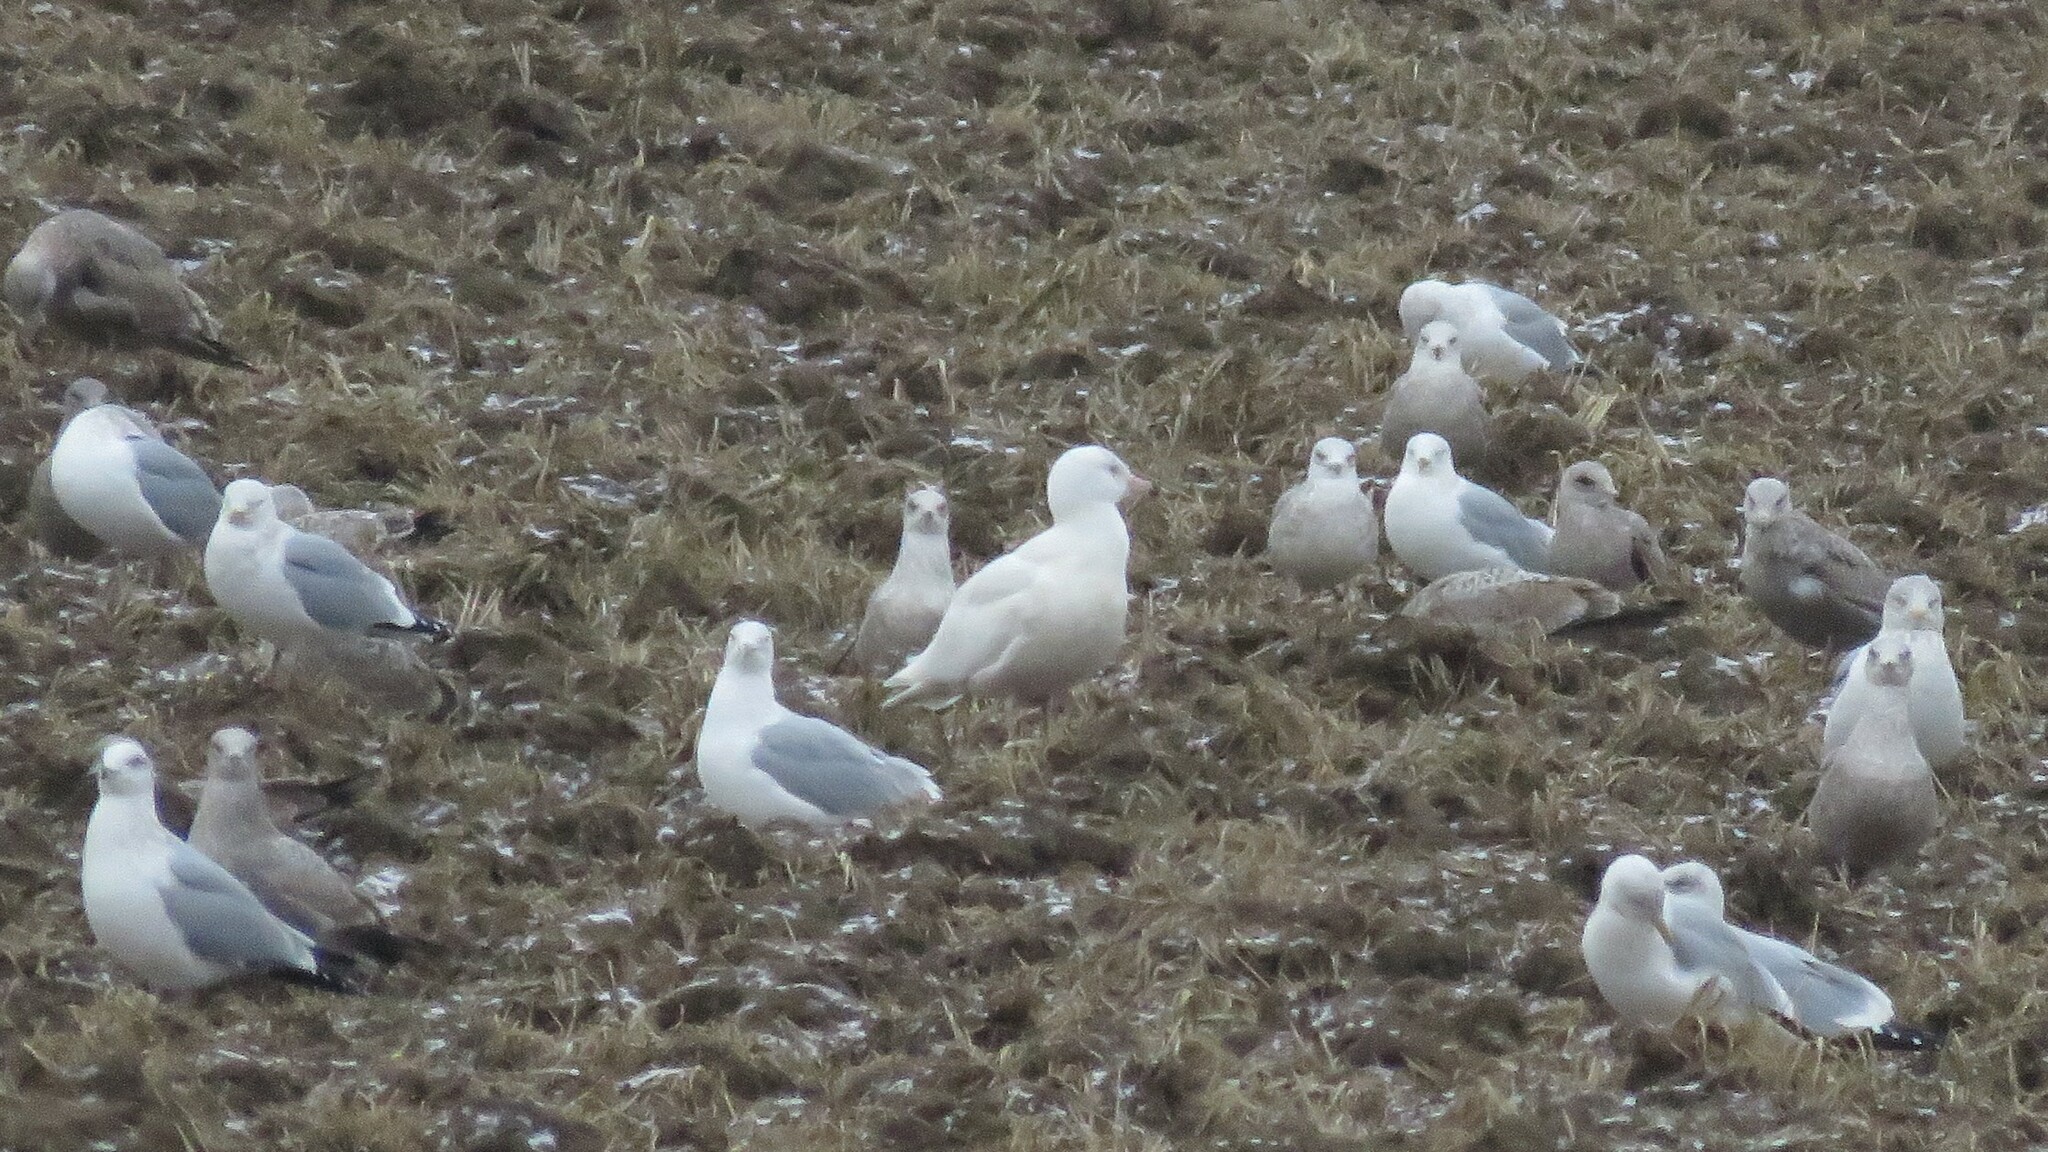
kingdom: Animalia
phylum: Chordata
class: Aves
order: Charadriiformes
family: Laridae
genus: Larus
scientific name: Larus hyperboreus
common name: Glaucous gull
